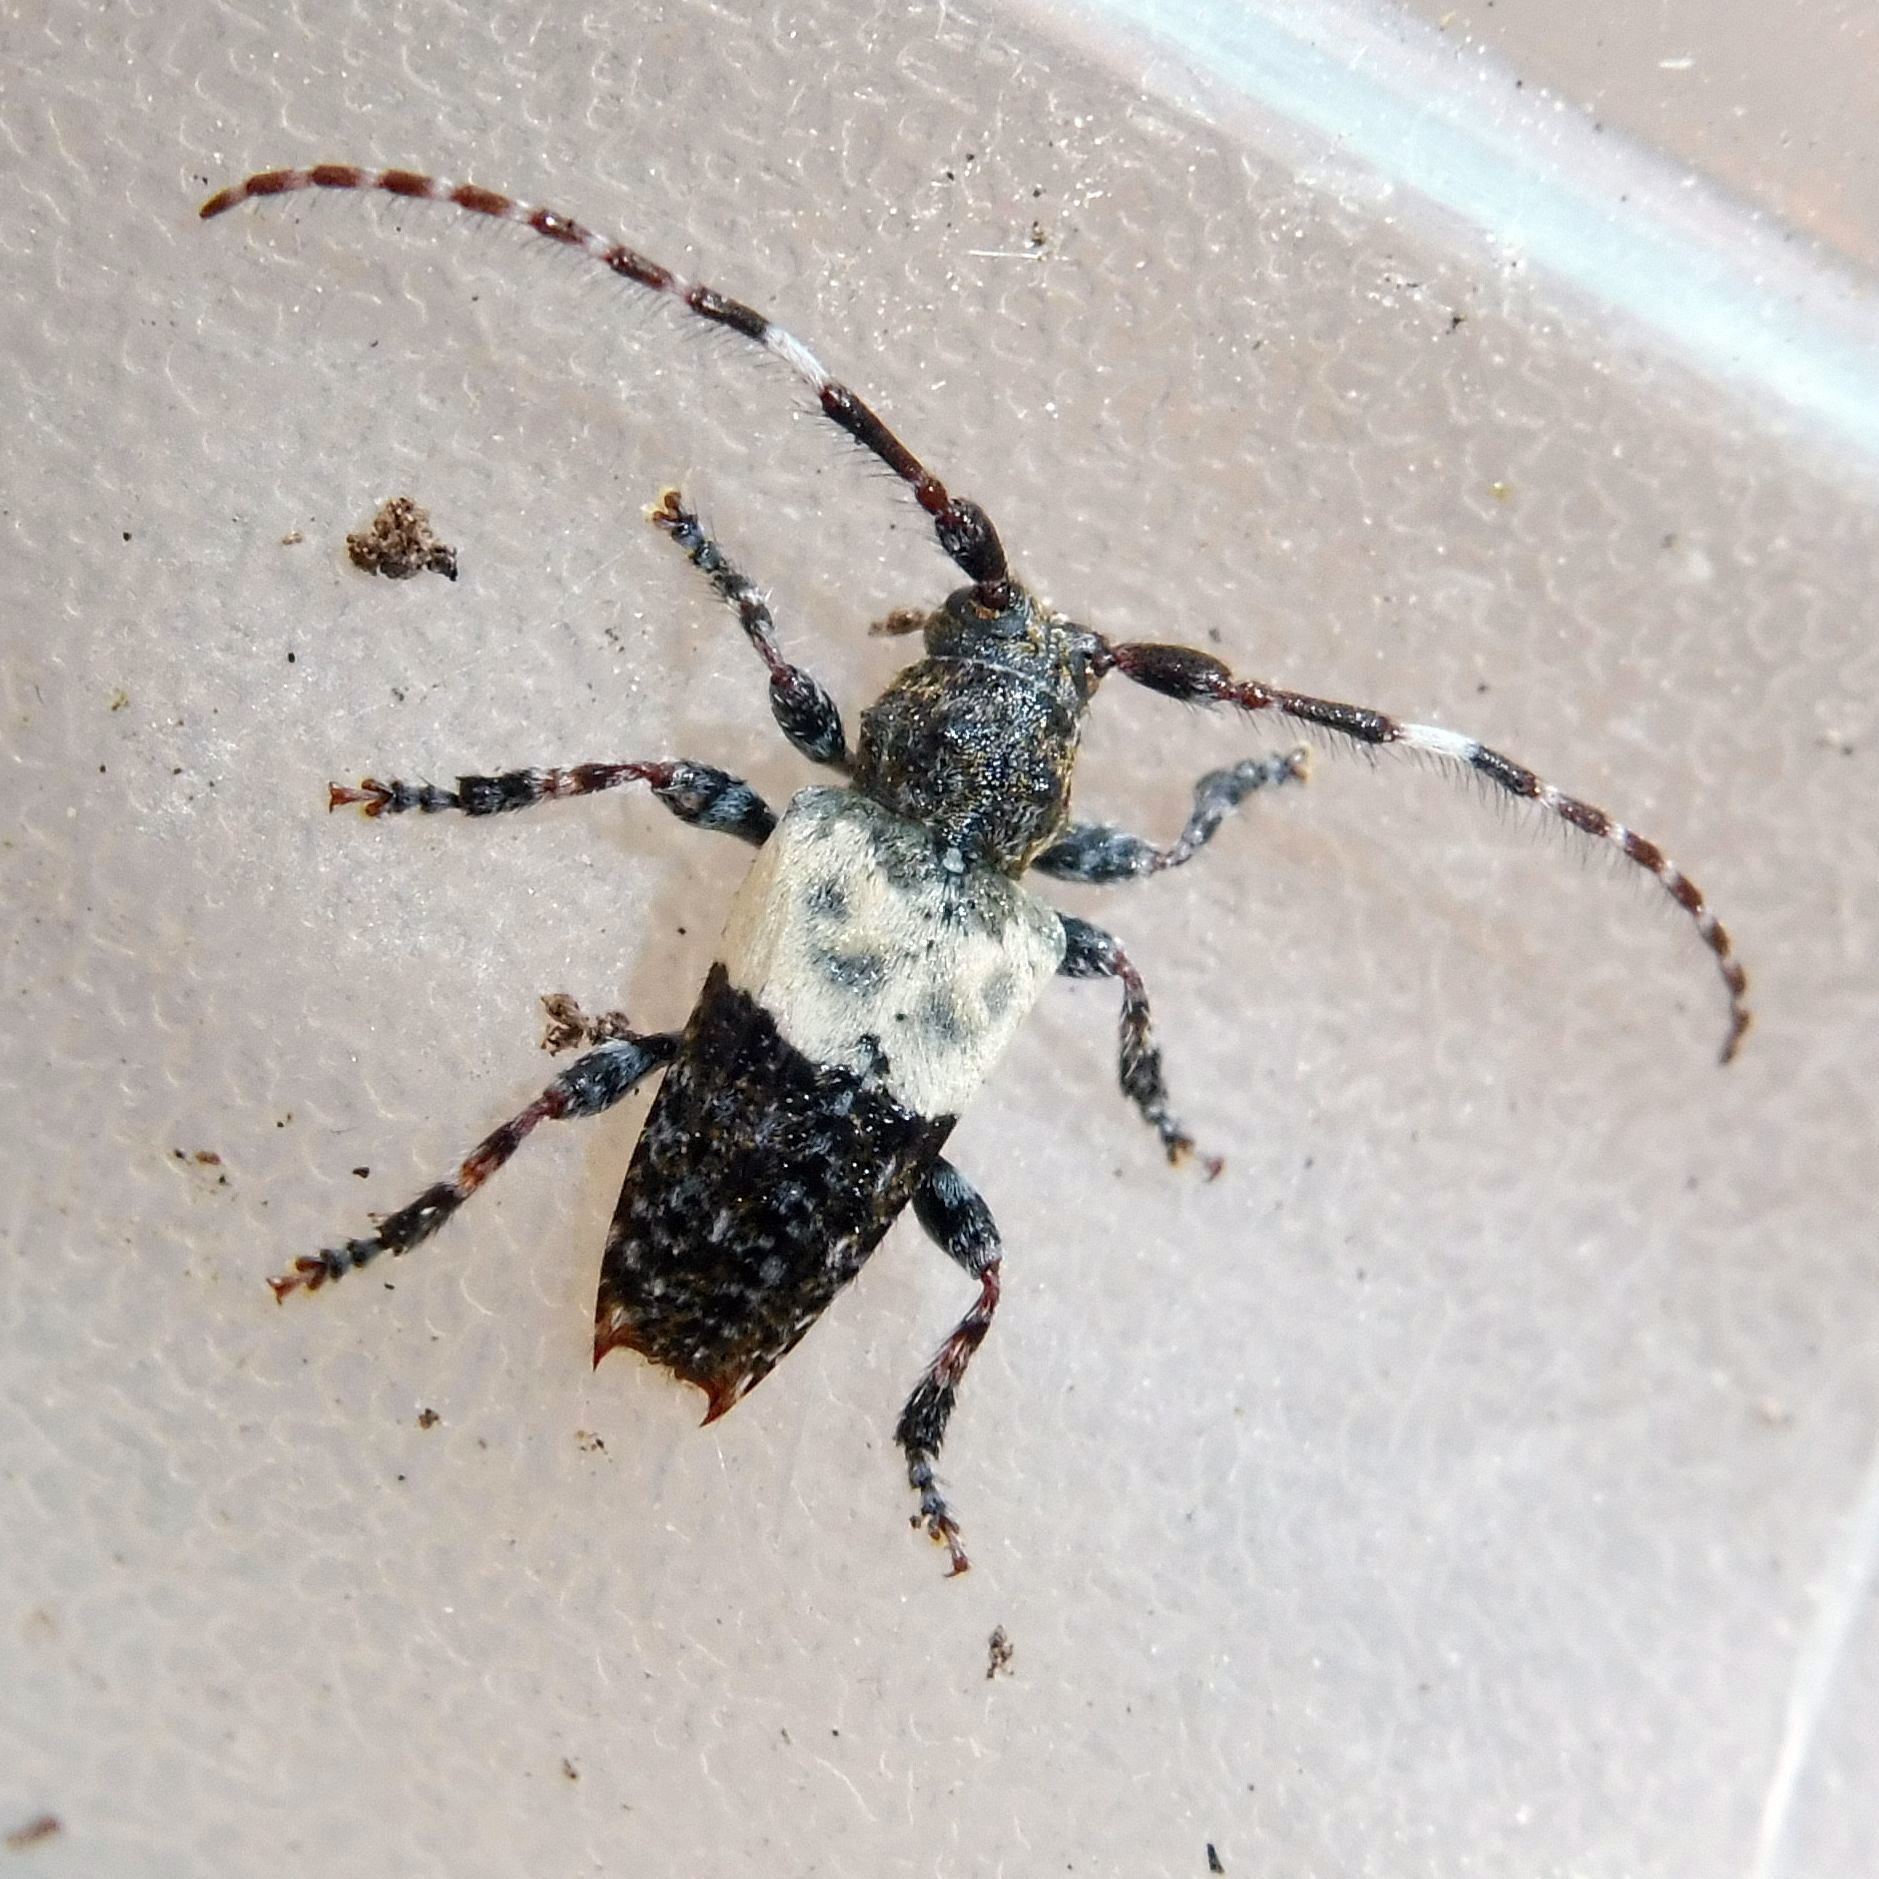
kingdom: Animalia
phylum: Arthropoda
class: Insecta
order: Coleoptera
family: Cerambycidae
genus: Pogonocherus
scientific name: Pogonocherus hispidulus
